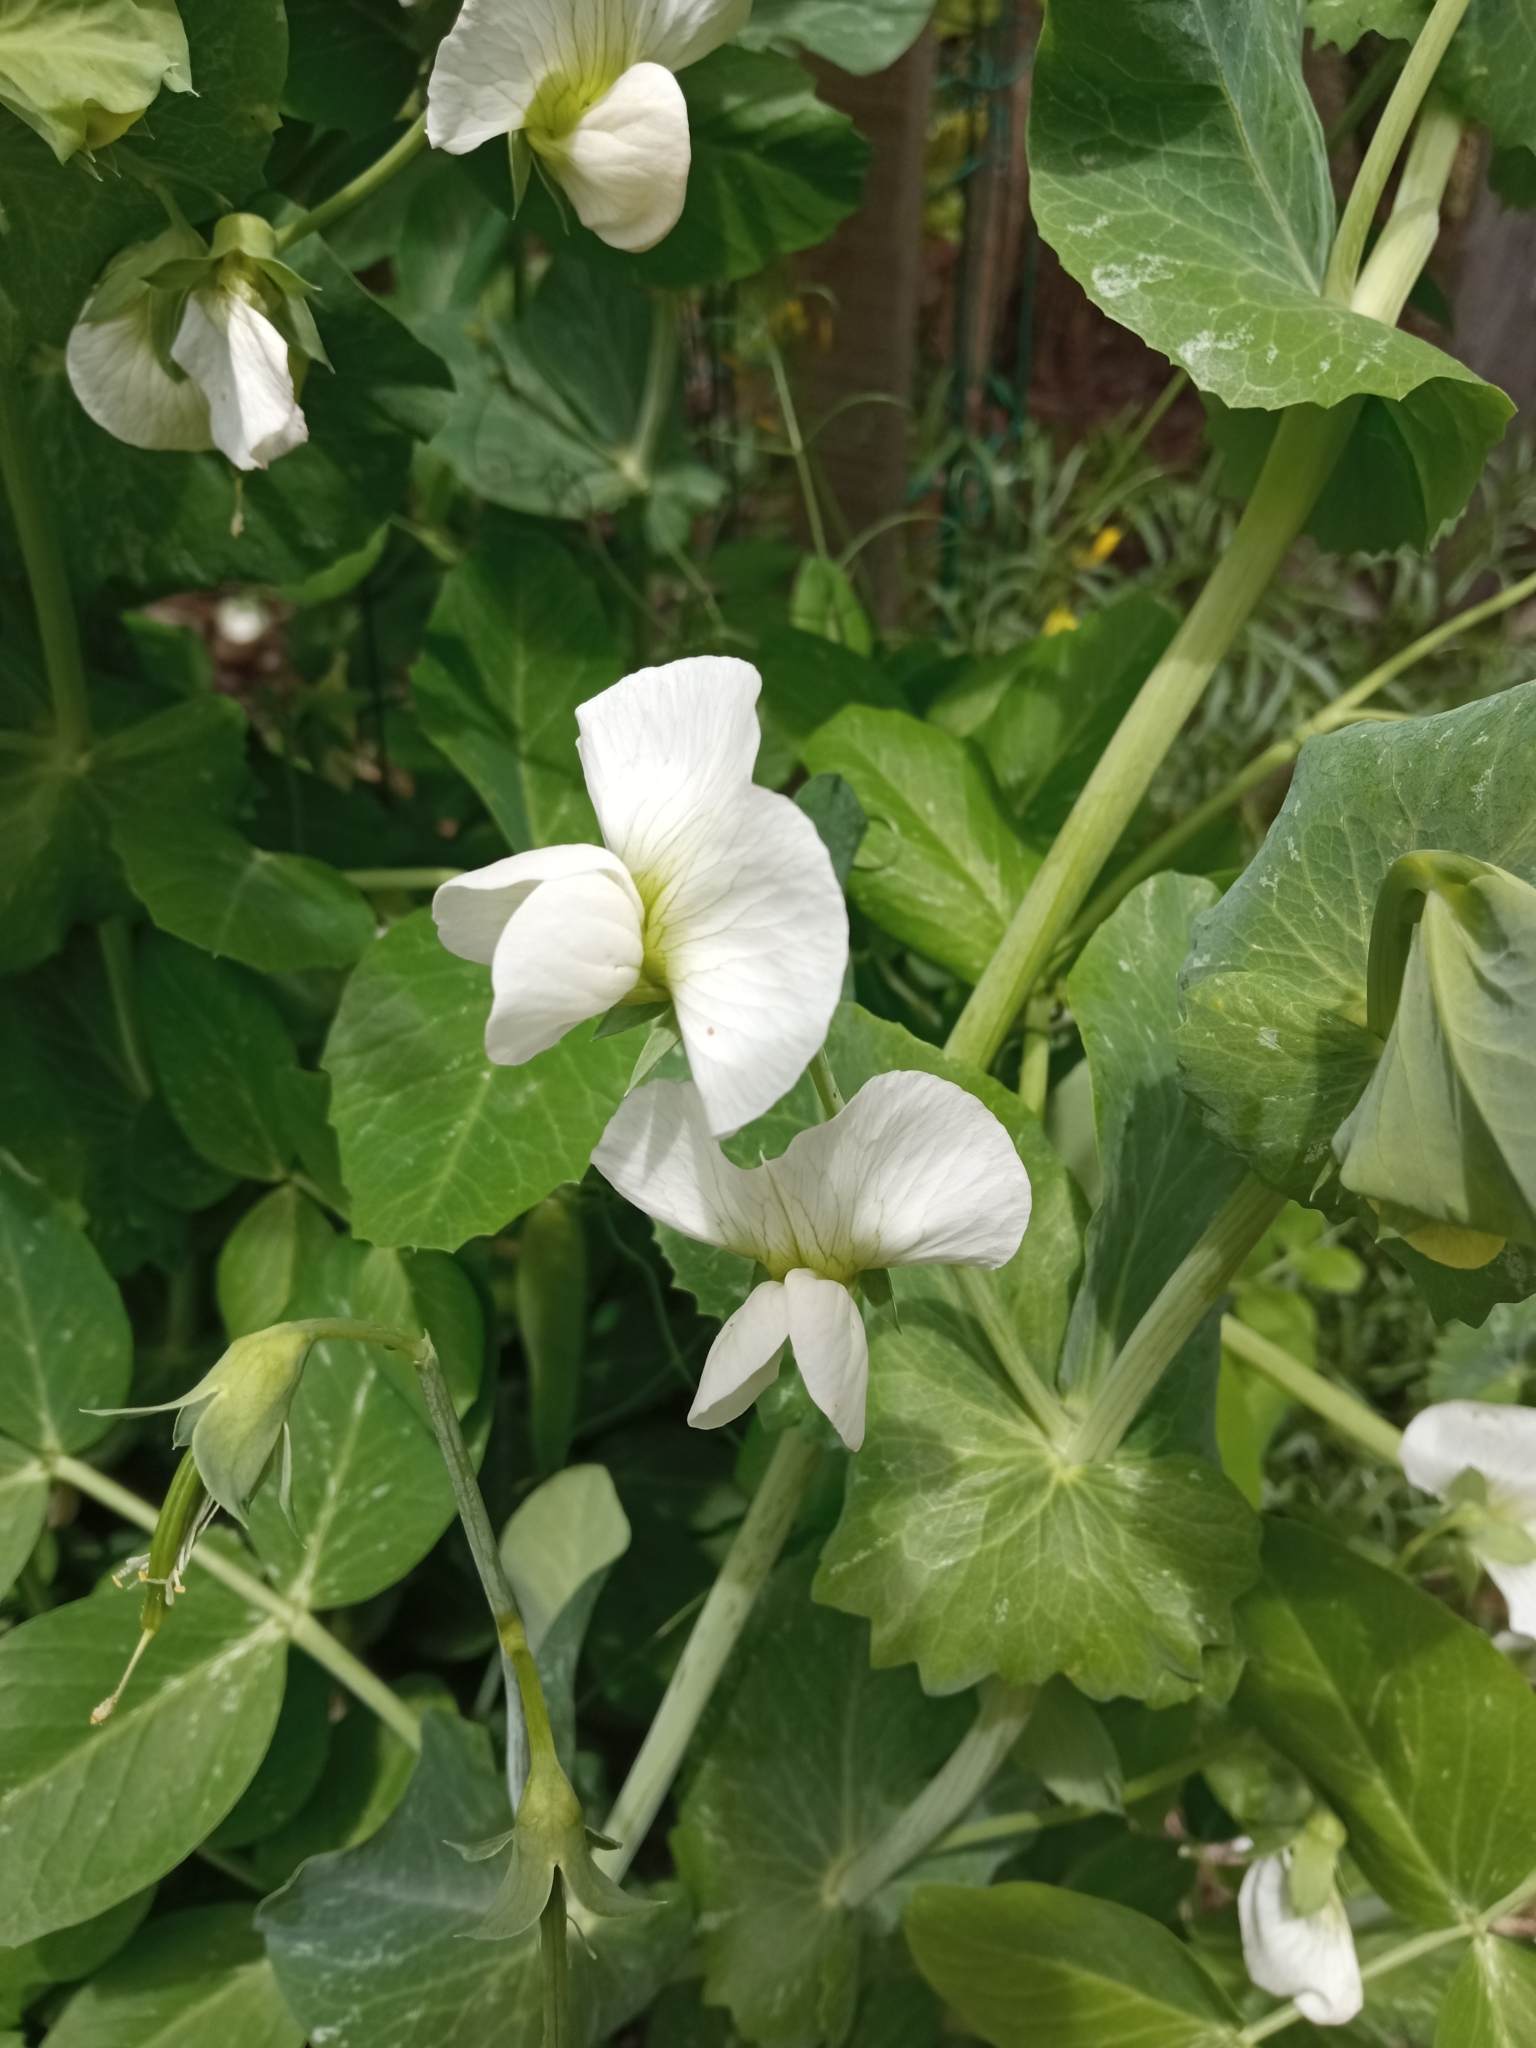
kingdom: Plantae
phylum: Tracheophyta
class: Magnoliopsida
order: Fabales
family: Fabaceae
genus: Lathyrus
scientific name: Lathyrus oleraceus
